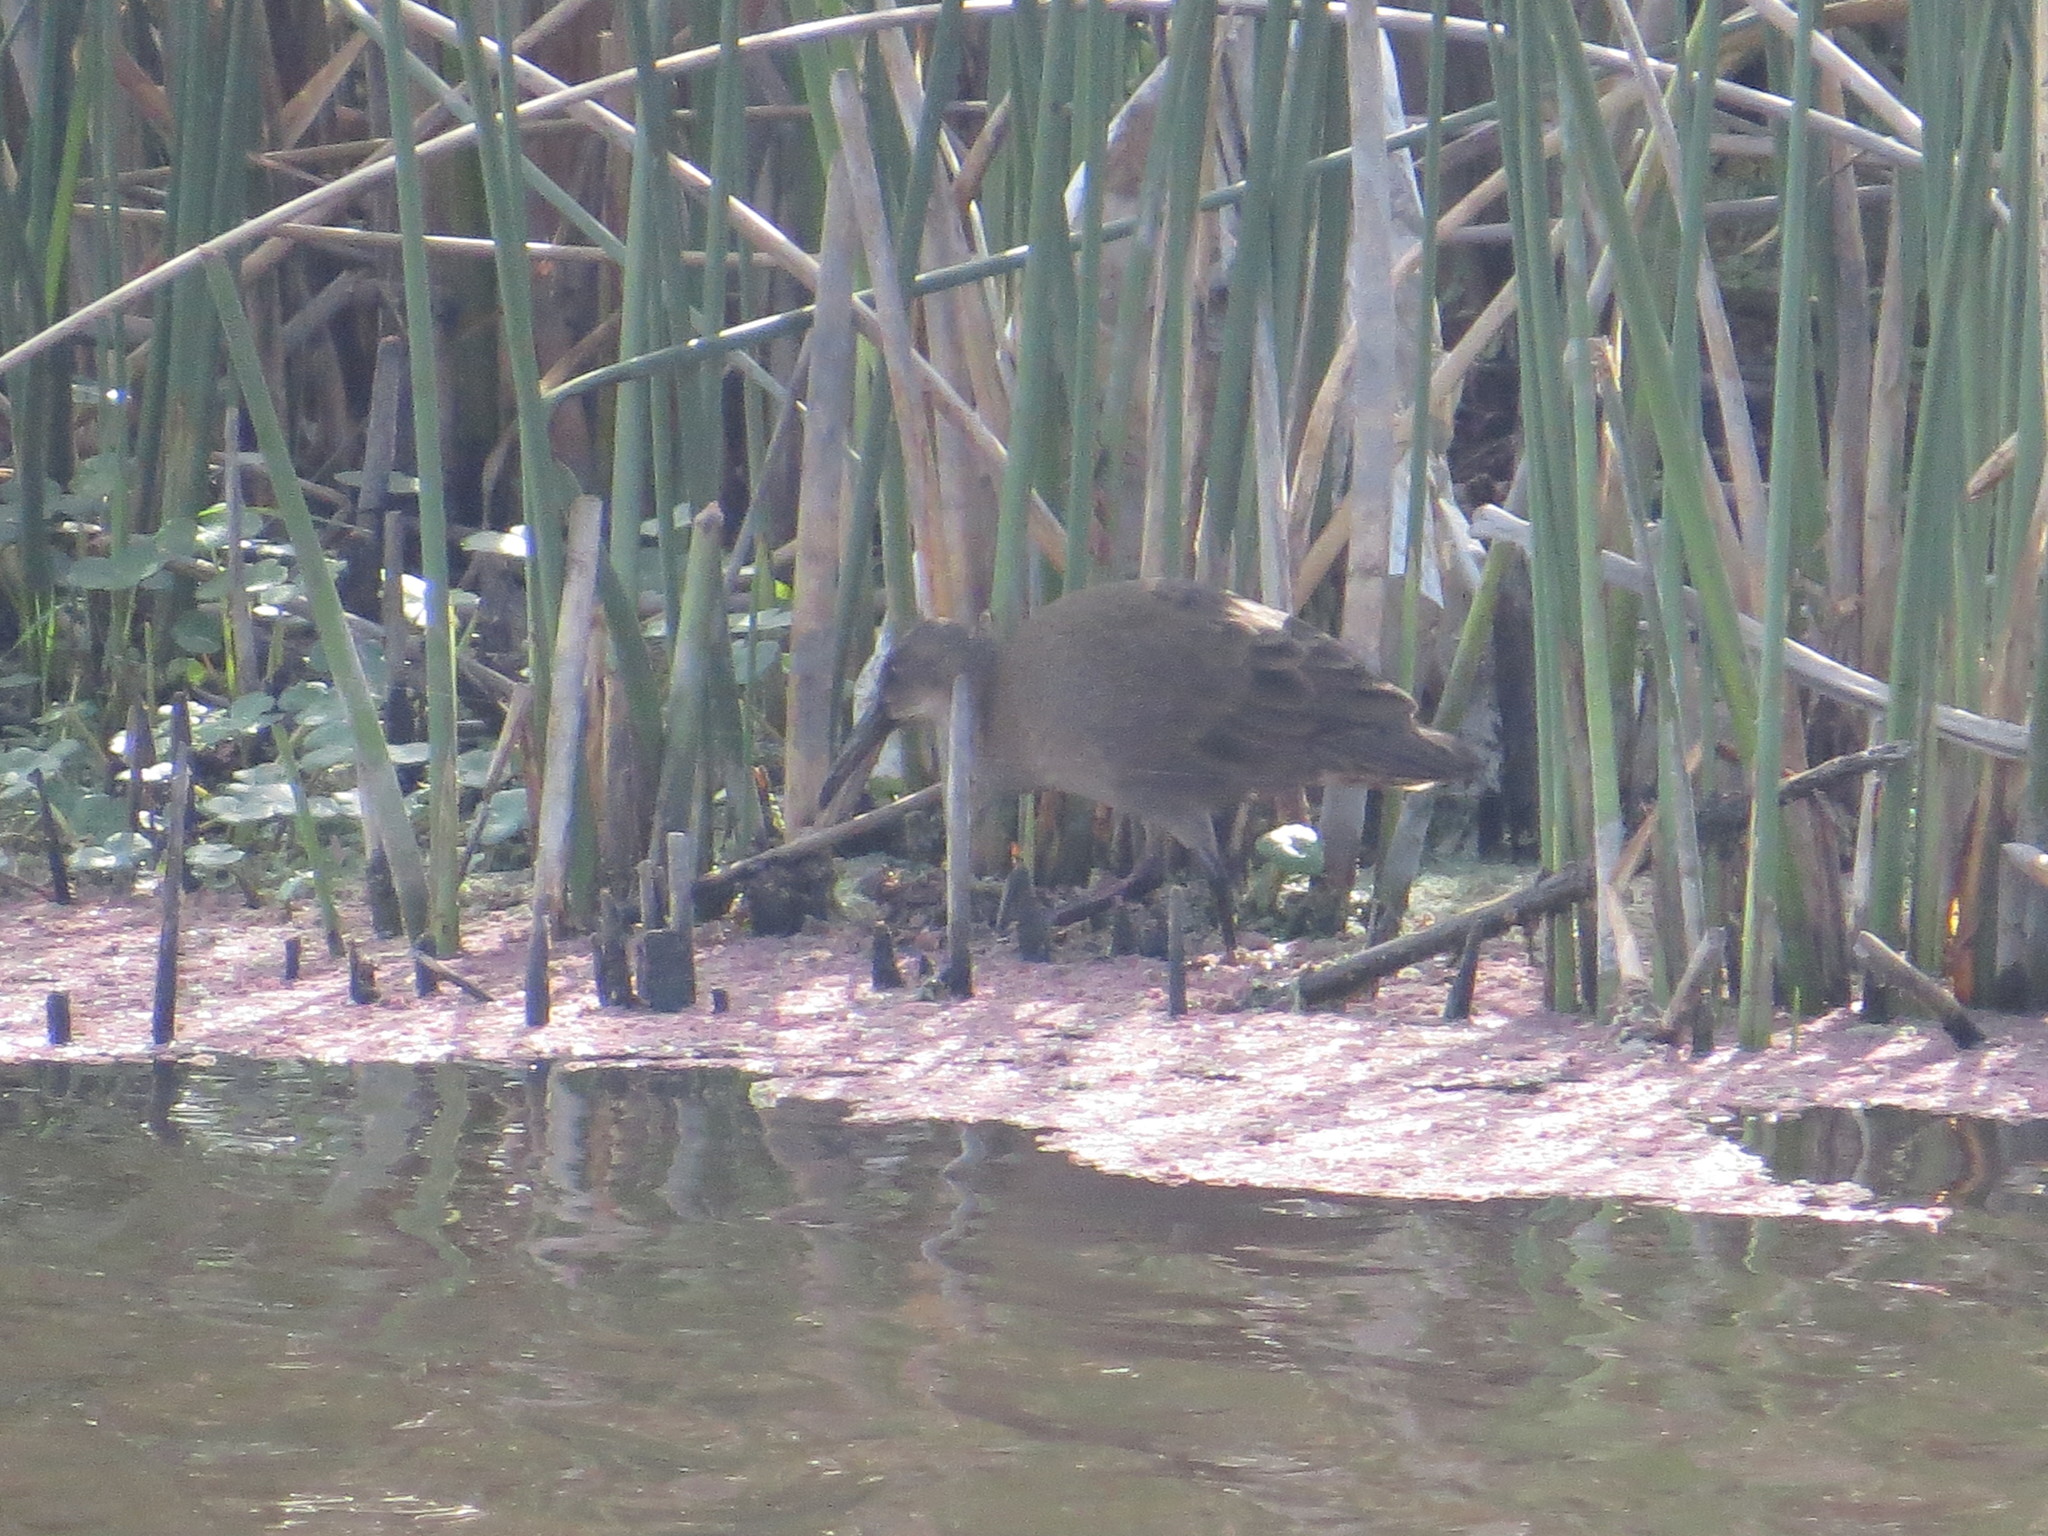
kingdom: Animalia
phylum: Chordata
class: Aves
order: Gruiformes
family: Rallidae
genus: Pardirallus
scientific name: Pardirallus sanguinolentus
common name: Plumbeous rail
